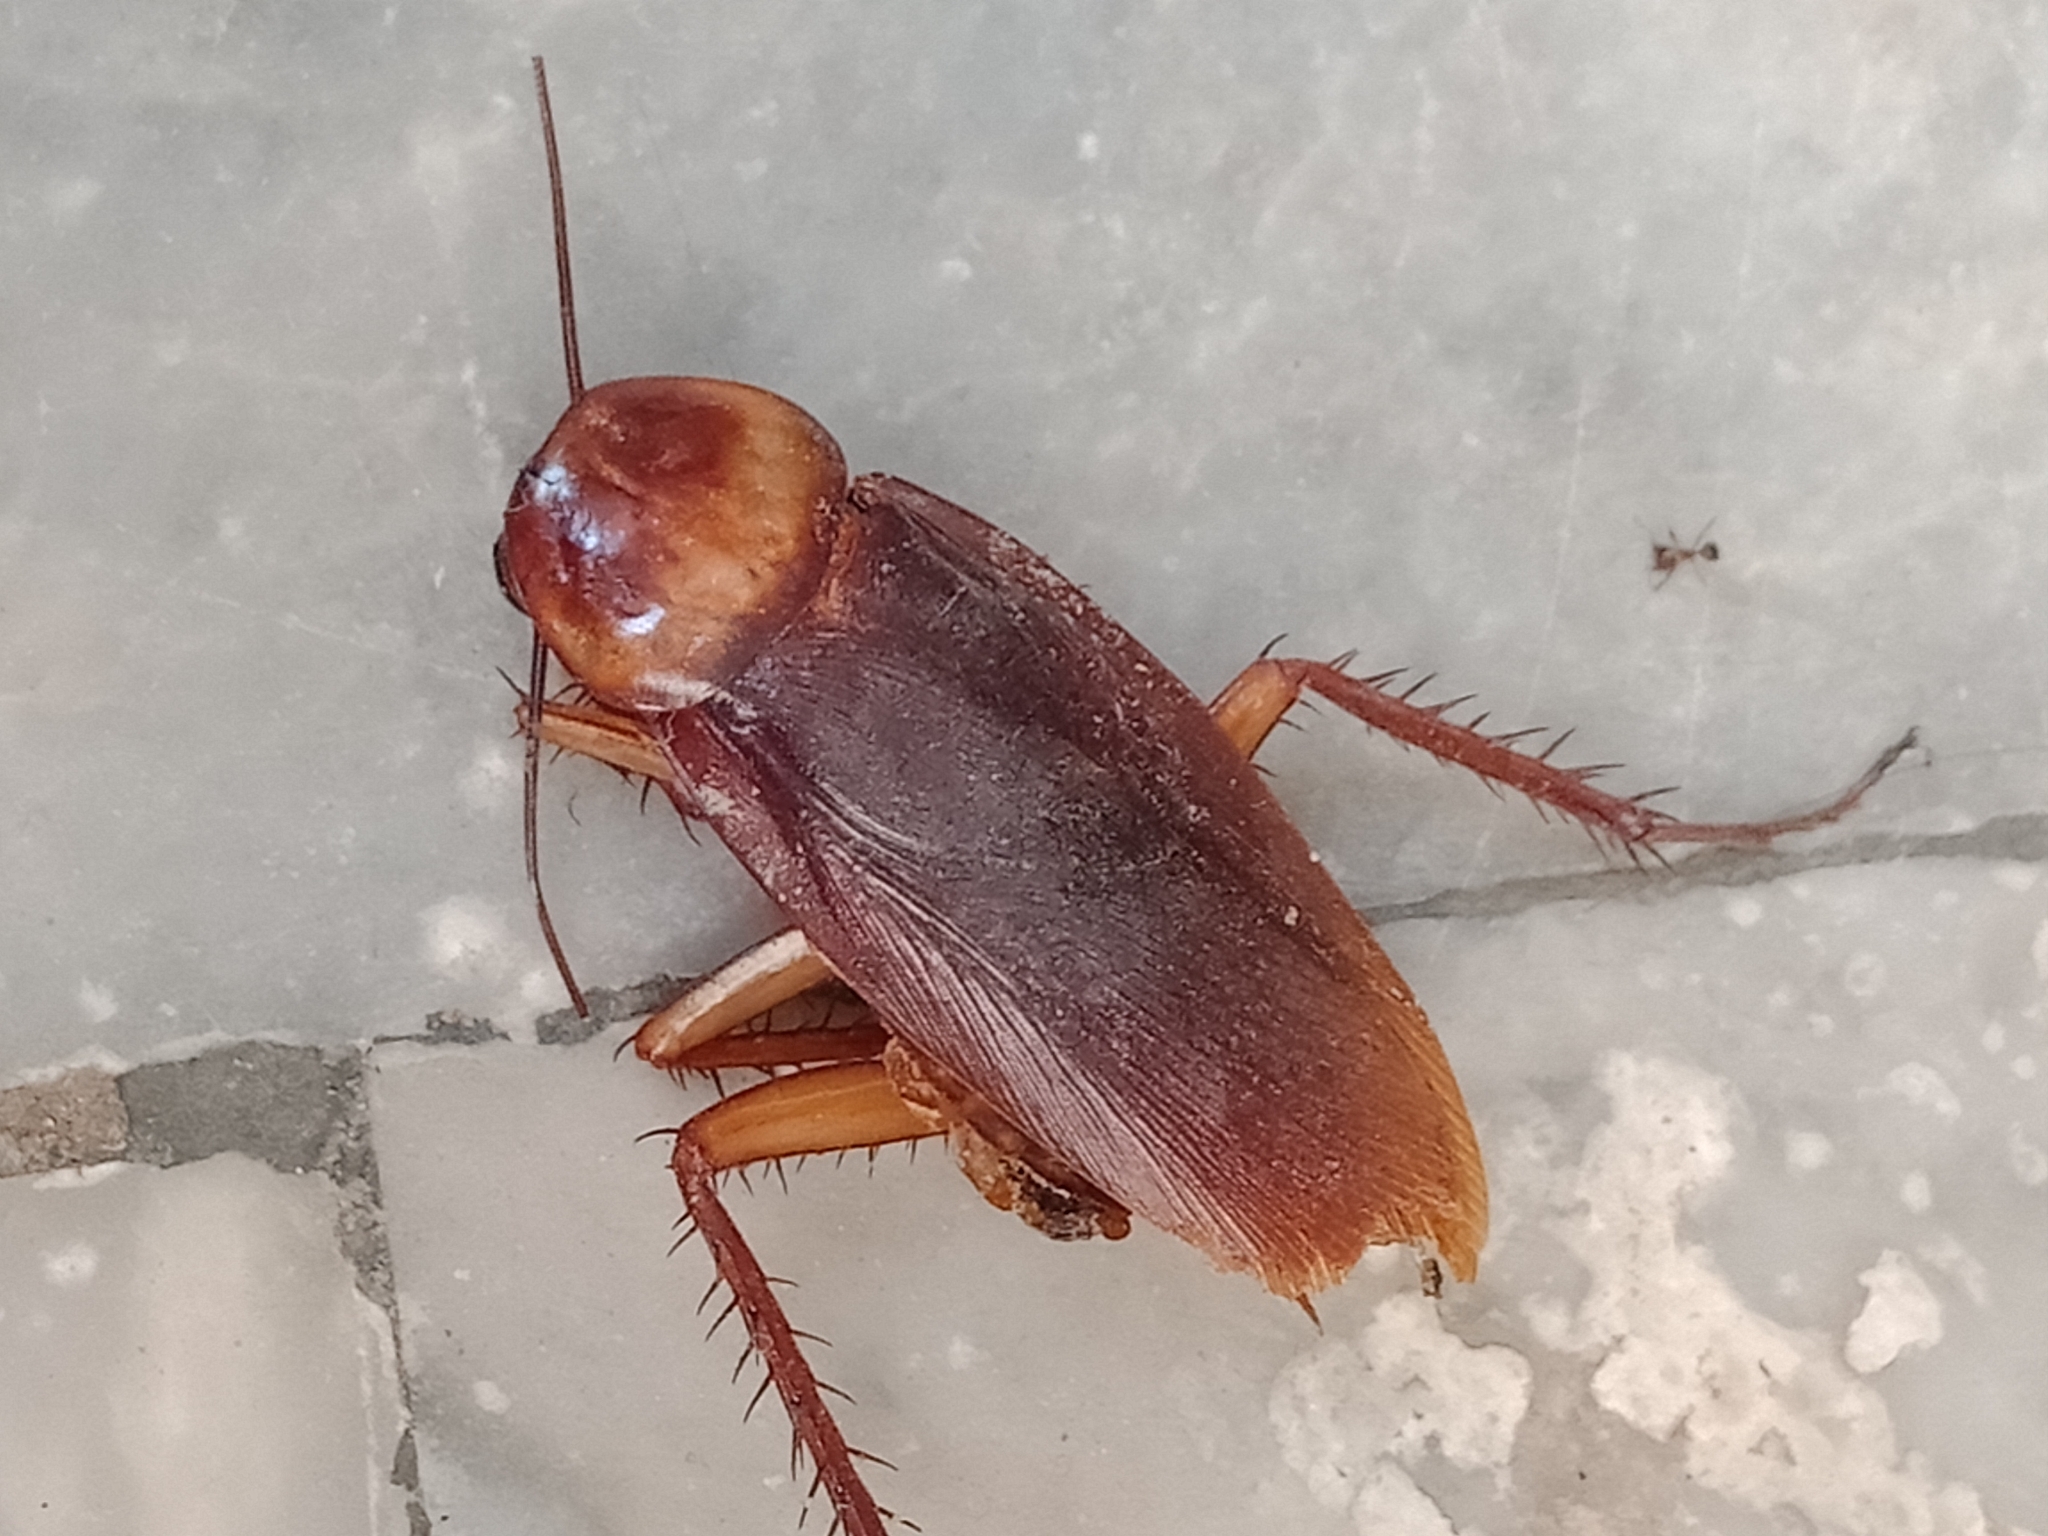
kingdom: Animalia
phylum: Arthropoda
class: Insecta
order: Blattodea
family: Blattidae
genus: Periplaneta
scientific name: Periplaneta americana
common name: American cockroach
